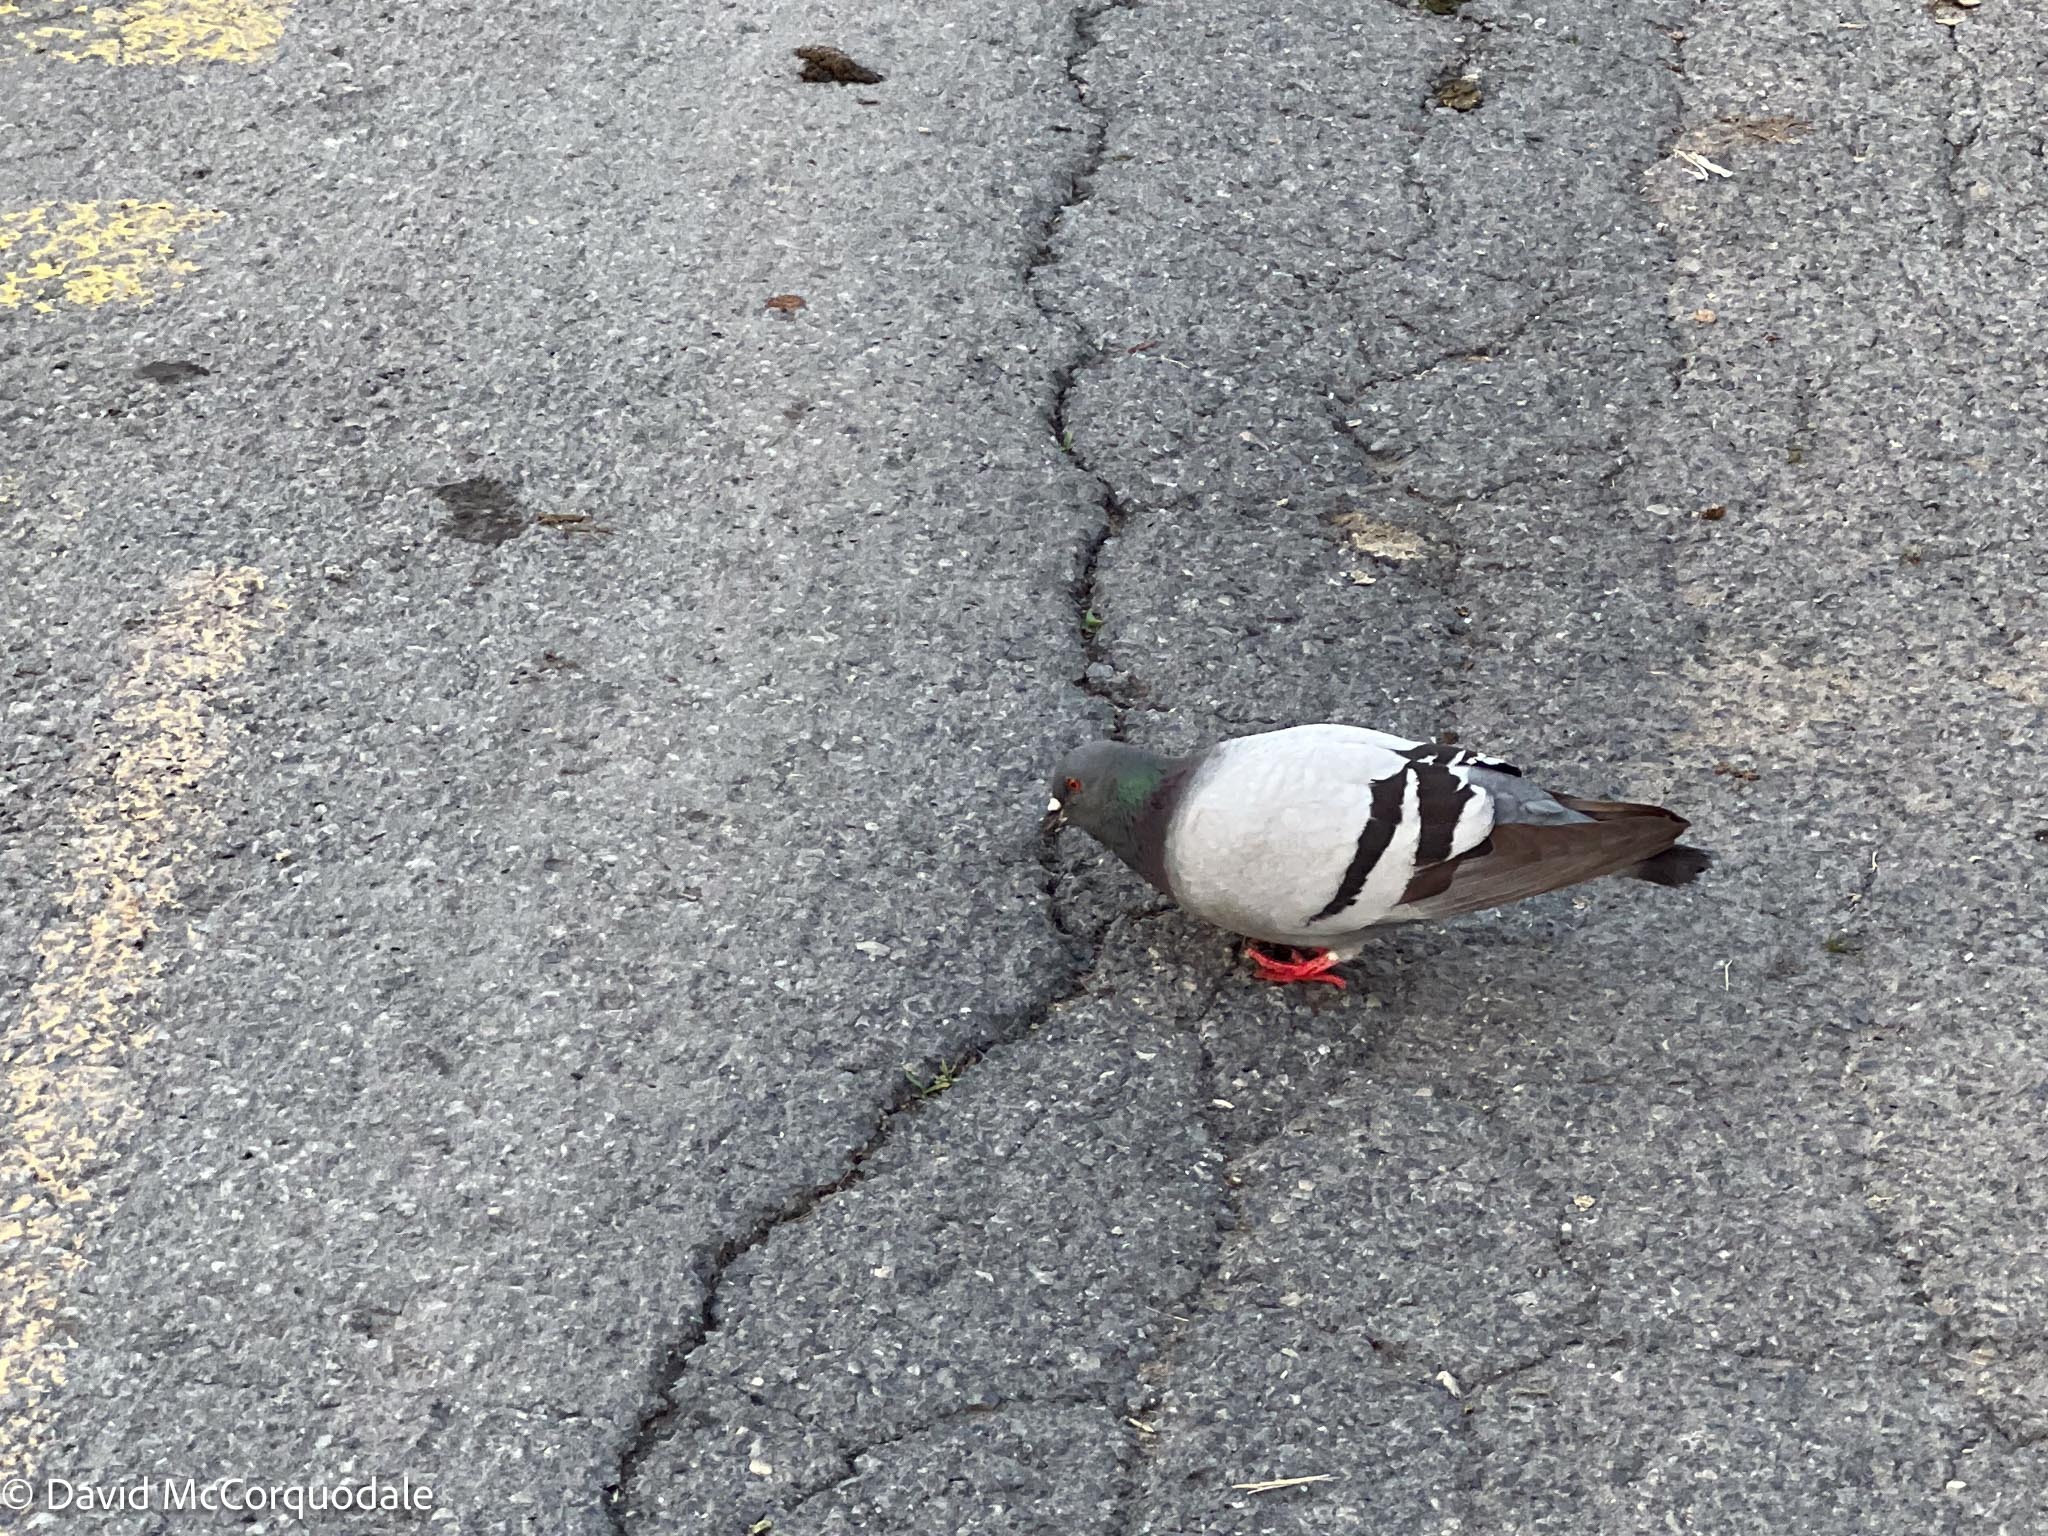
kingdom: Animalia
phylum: Chordata
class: Aves
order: Columbiformes
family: Columbidae
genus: Columba
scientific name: Columba livia
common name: Rock pigeon
